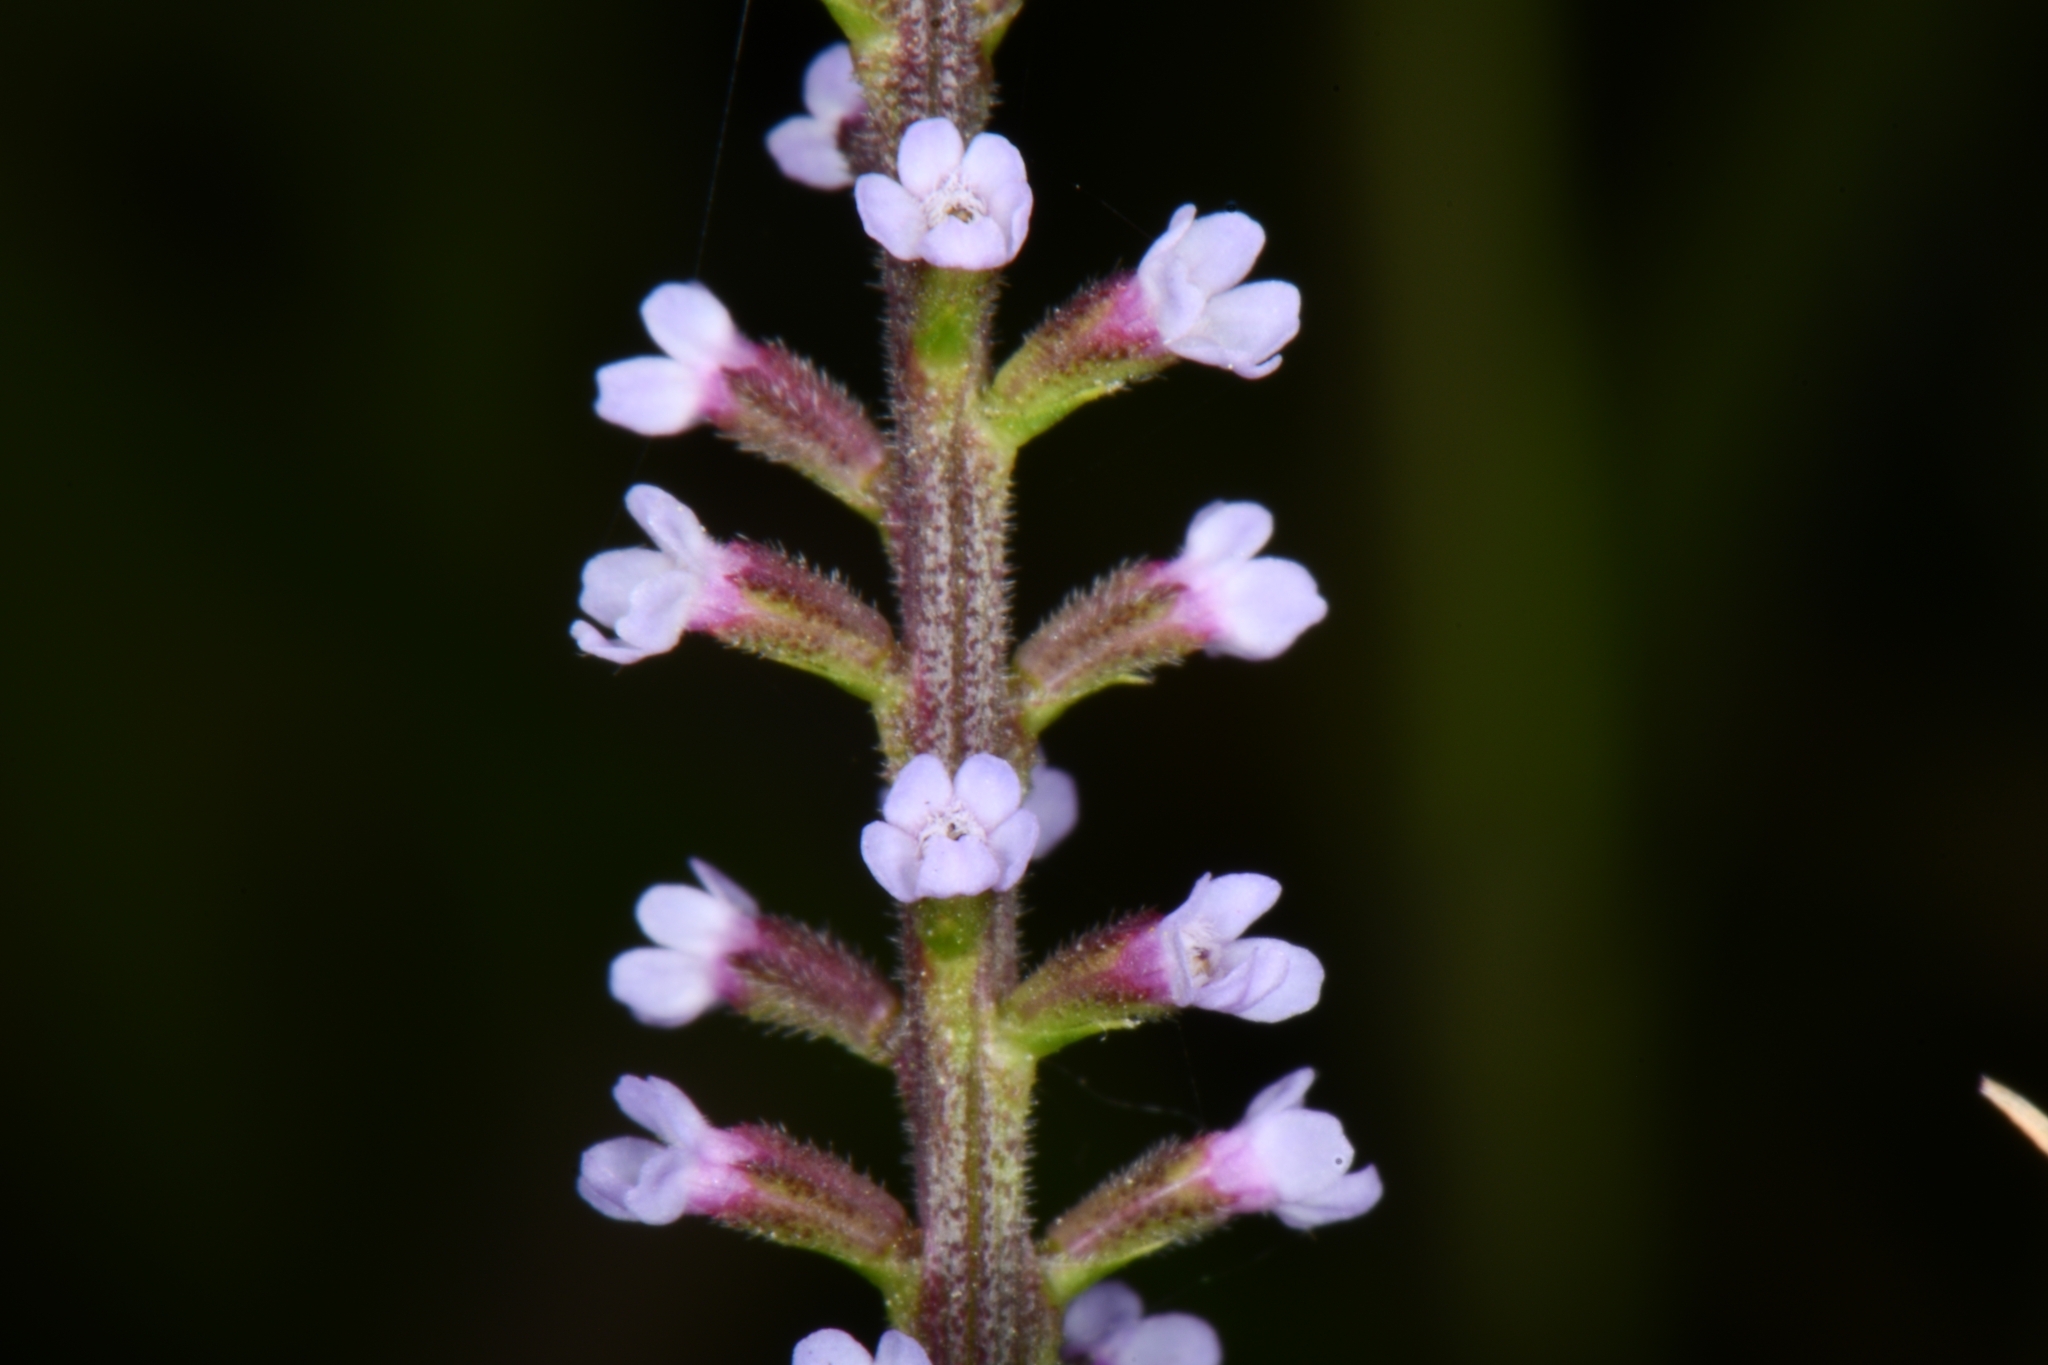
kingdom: Plantae
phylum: Tracheophyta
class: Magnoliopsida
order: Lamiales
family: Verbenaceae
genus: Verbena
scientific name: Verbena scabra
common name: Sandpaper vervain
